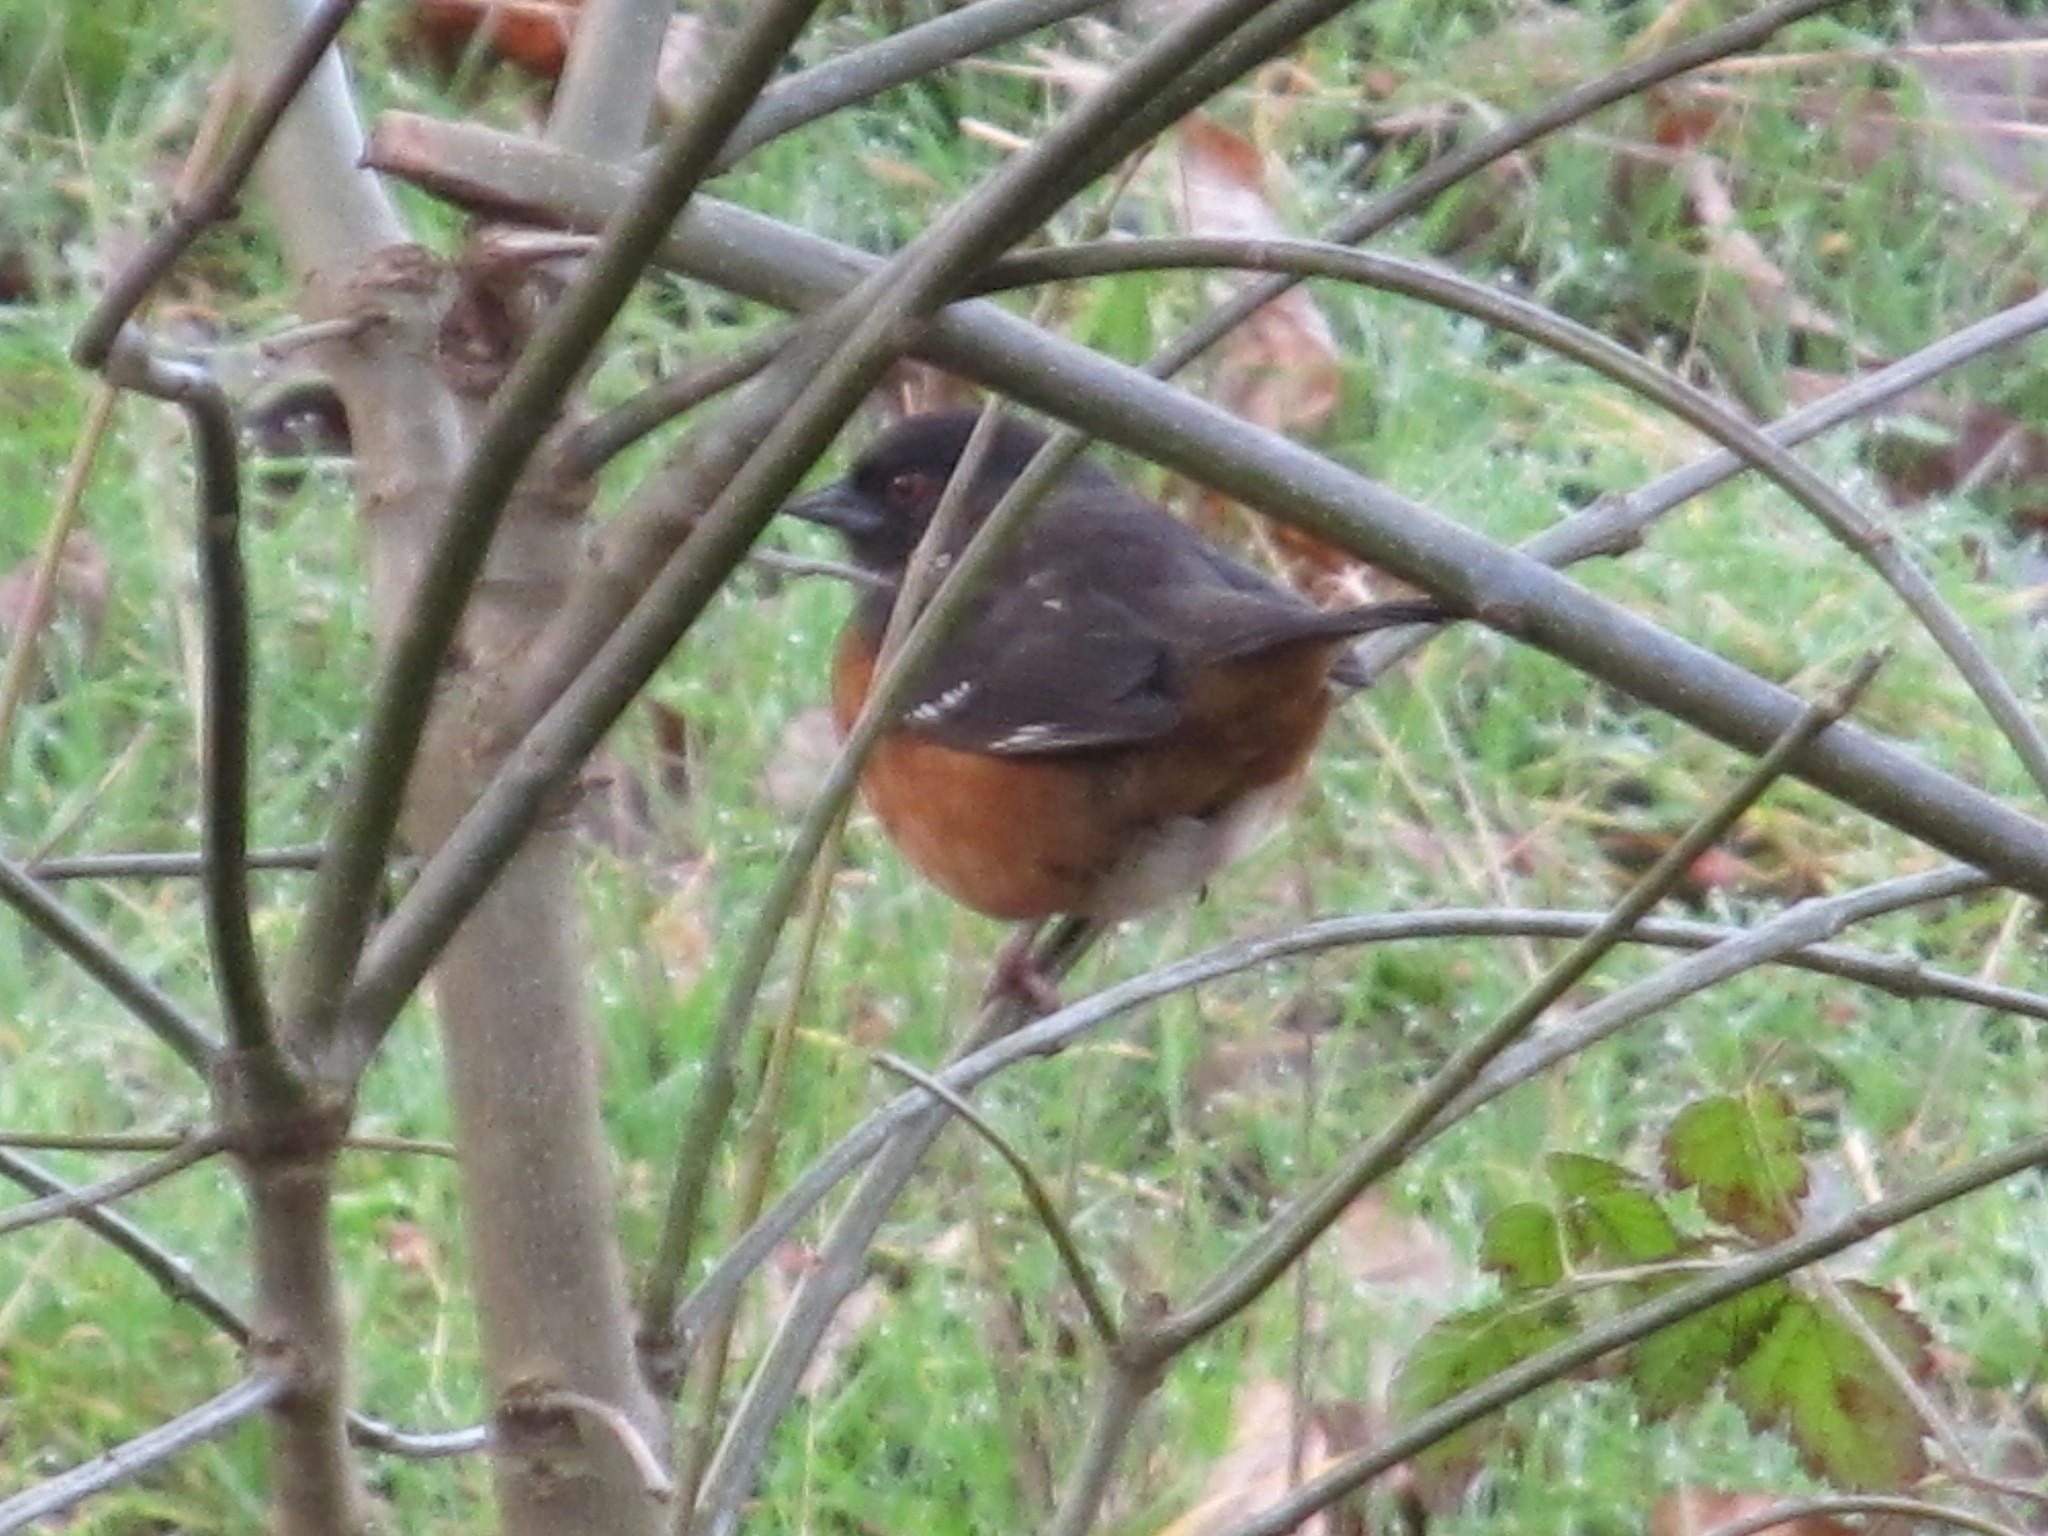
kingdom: Animalia
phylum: Chordata
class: Aves
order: Passeriformes
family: Passerellidae
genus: Pipilo
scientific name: Pipilo maculatus
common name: Spotted towhee
